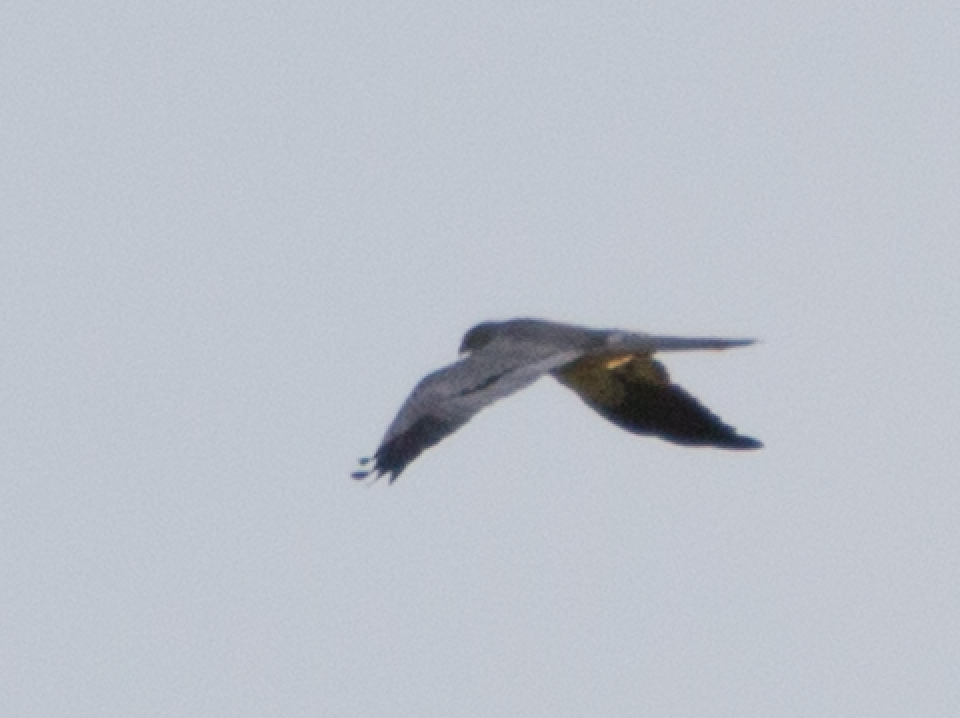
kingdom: Animalia
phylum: Chordata
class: Aves
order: Accipitriformes
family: Accipitridae
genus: Circus
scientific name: Circus pygargus
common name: Montagu's harrier
